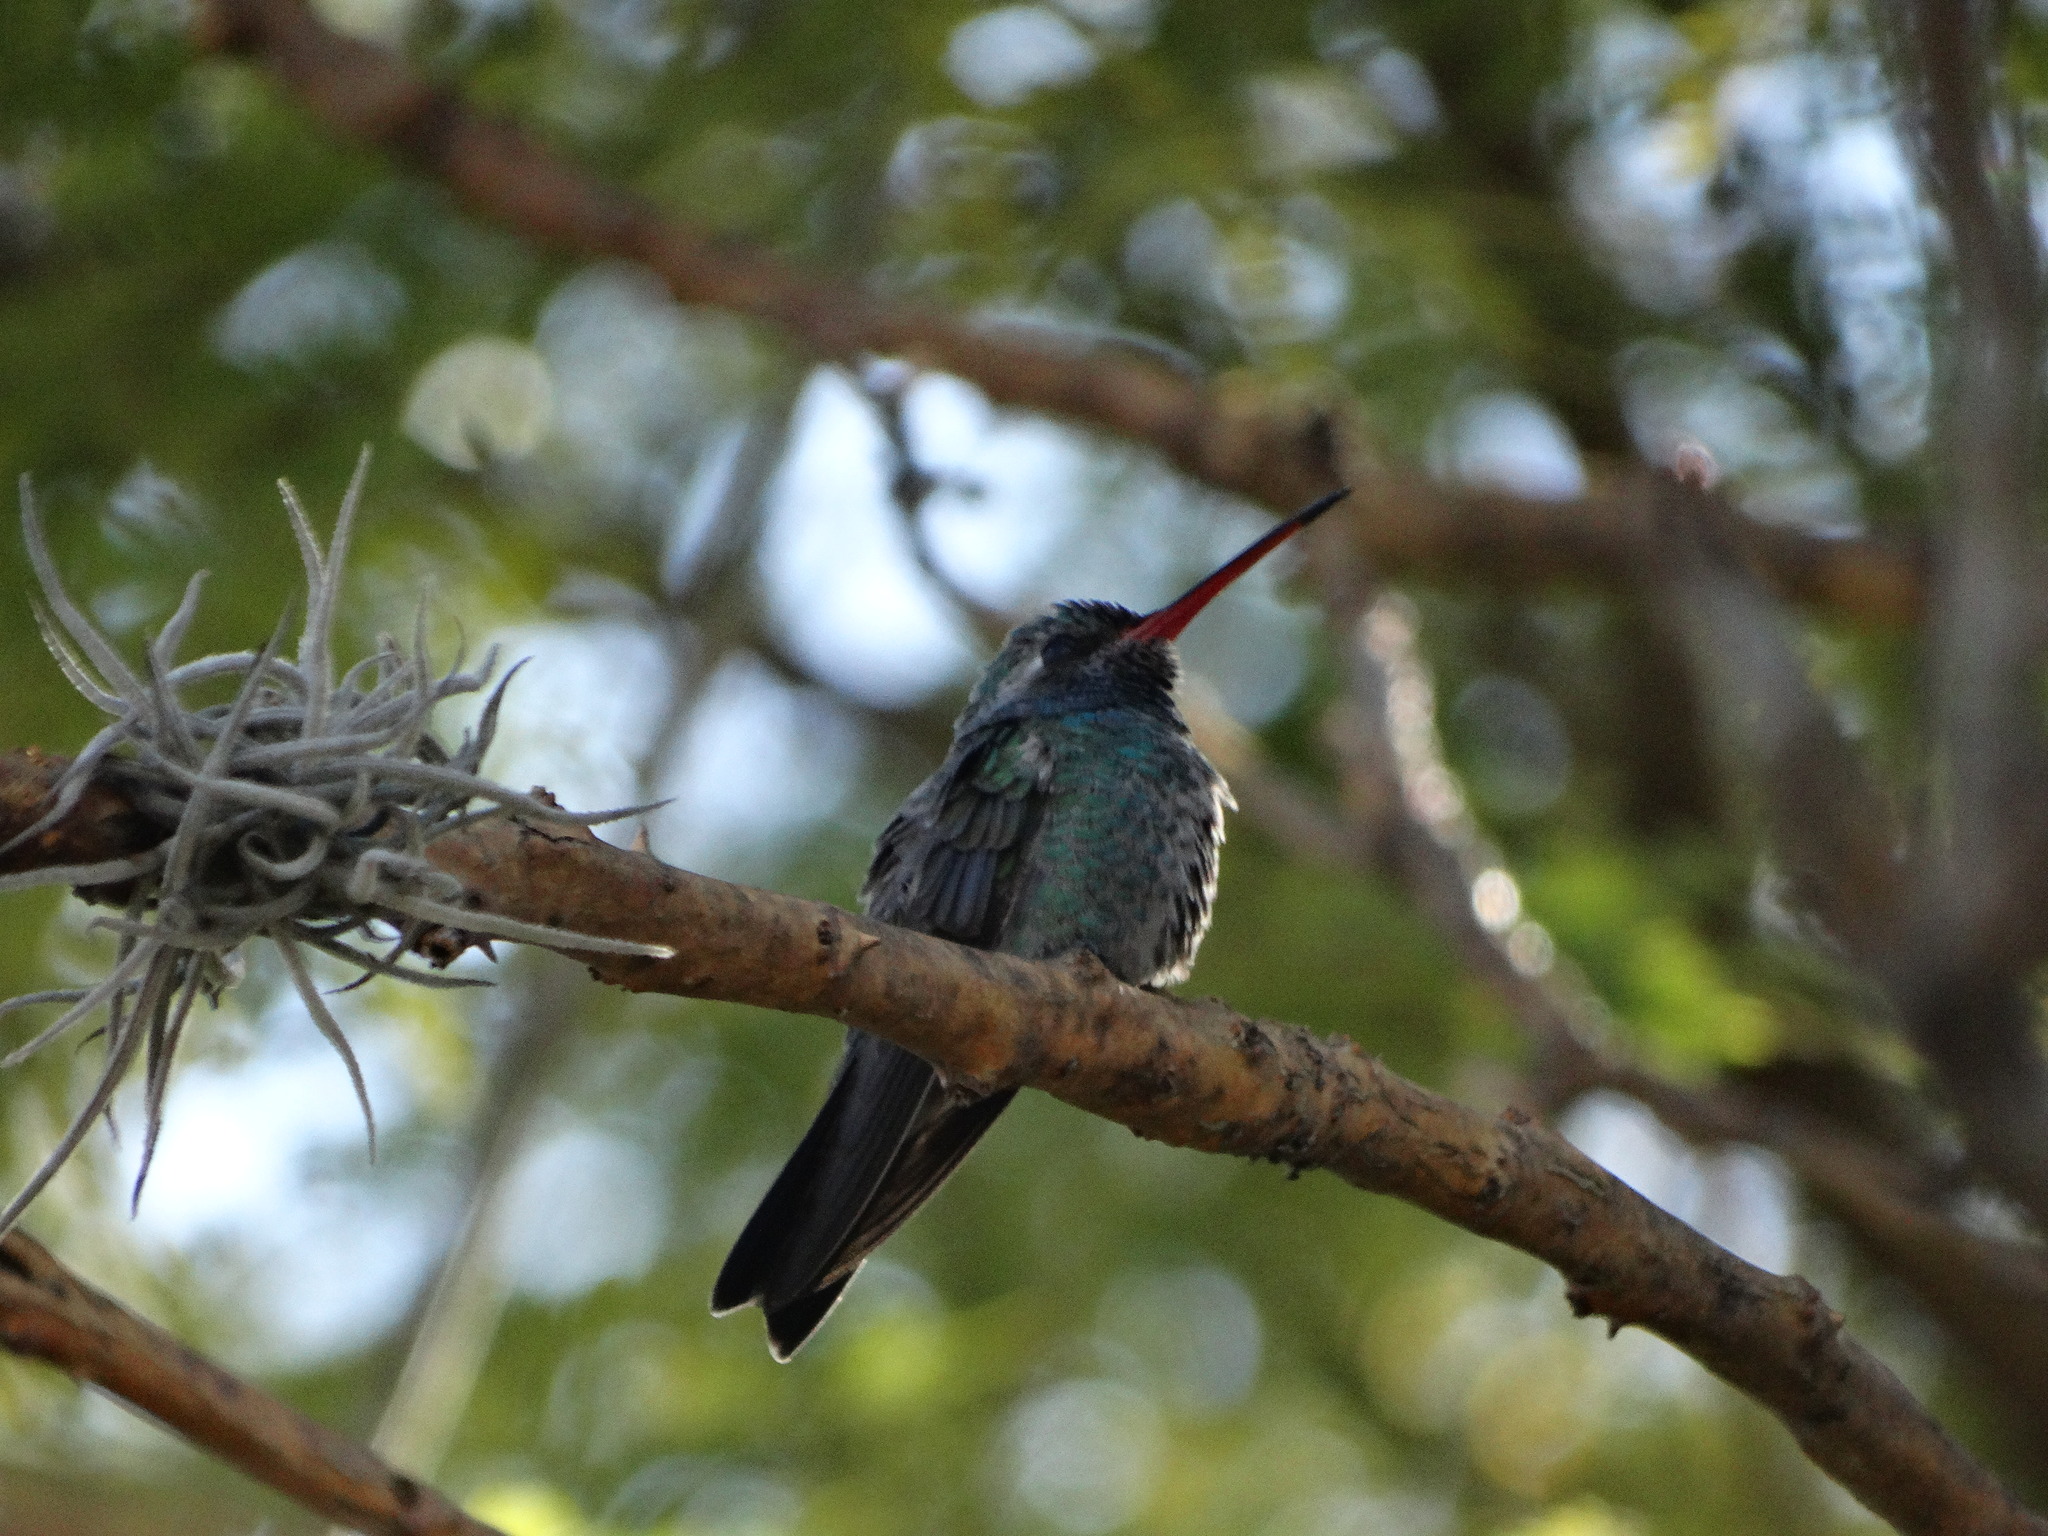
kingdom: Animalia
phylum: Chordata
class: Aves
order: Apodiformes
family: Trochilidae
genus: Cynanthus
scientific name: Cynanthus latirostris
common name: Broad-billed hummingbird
